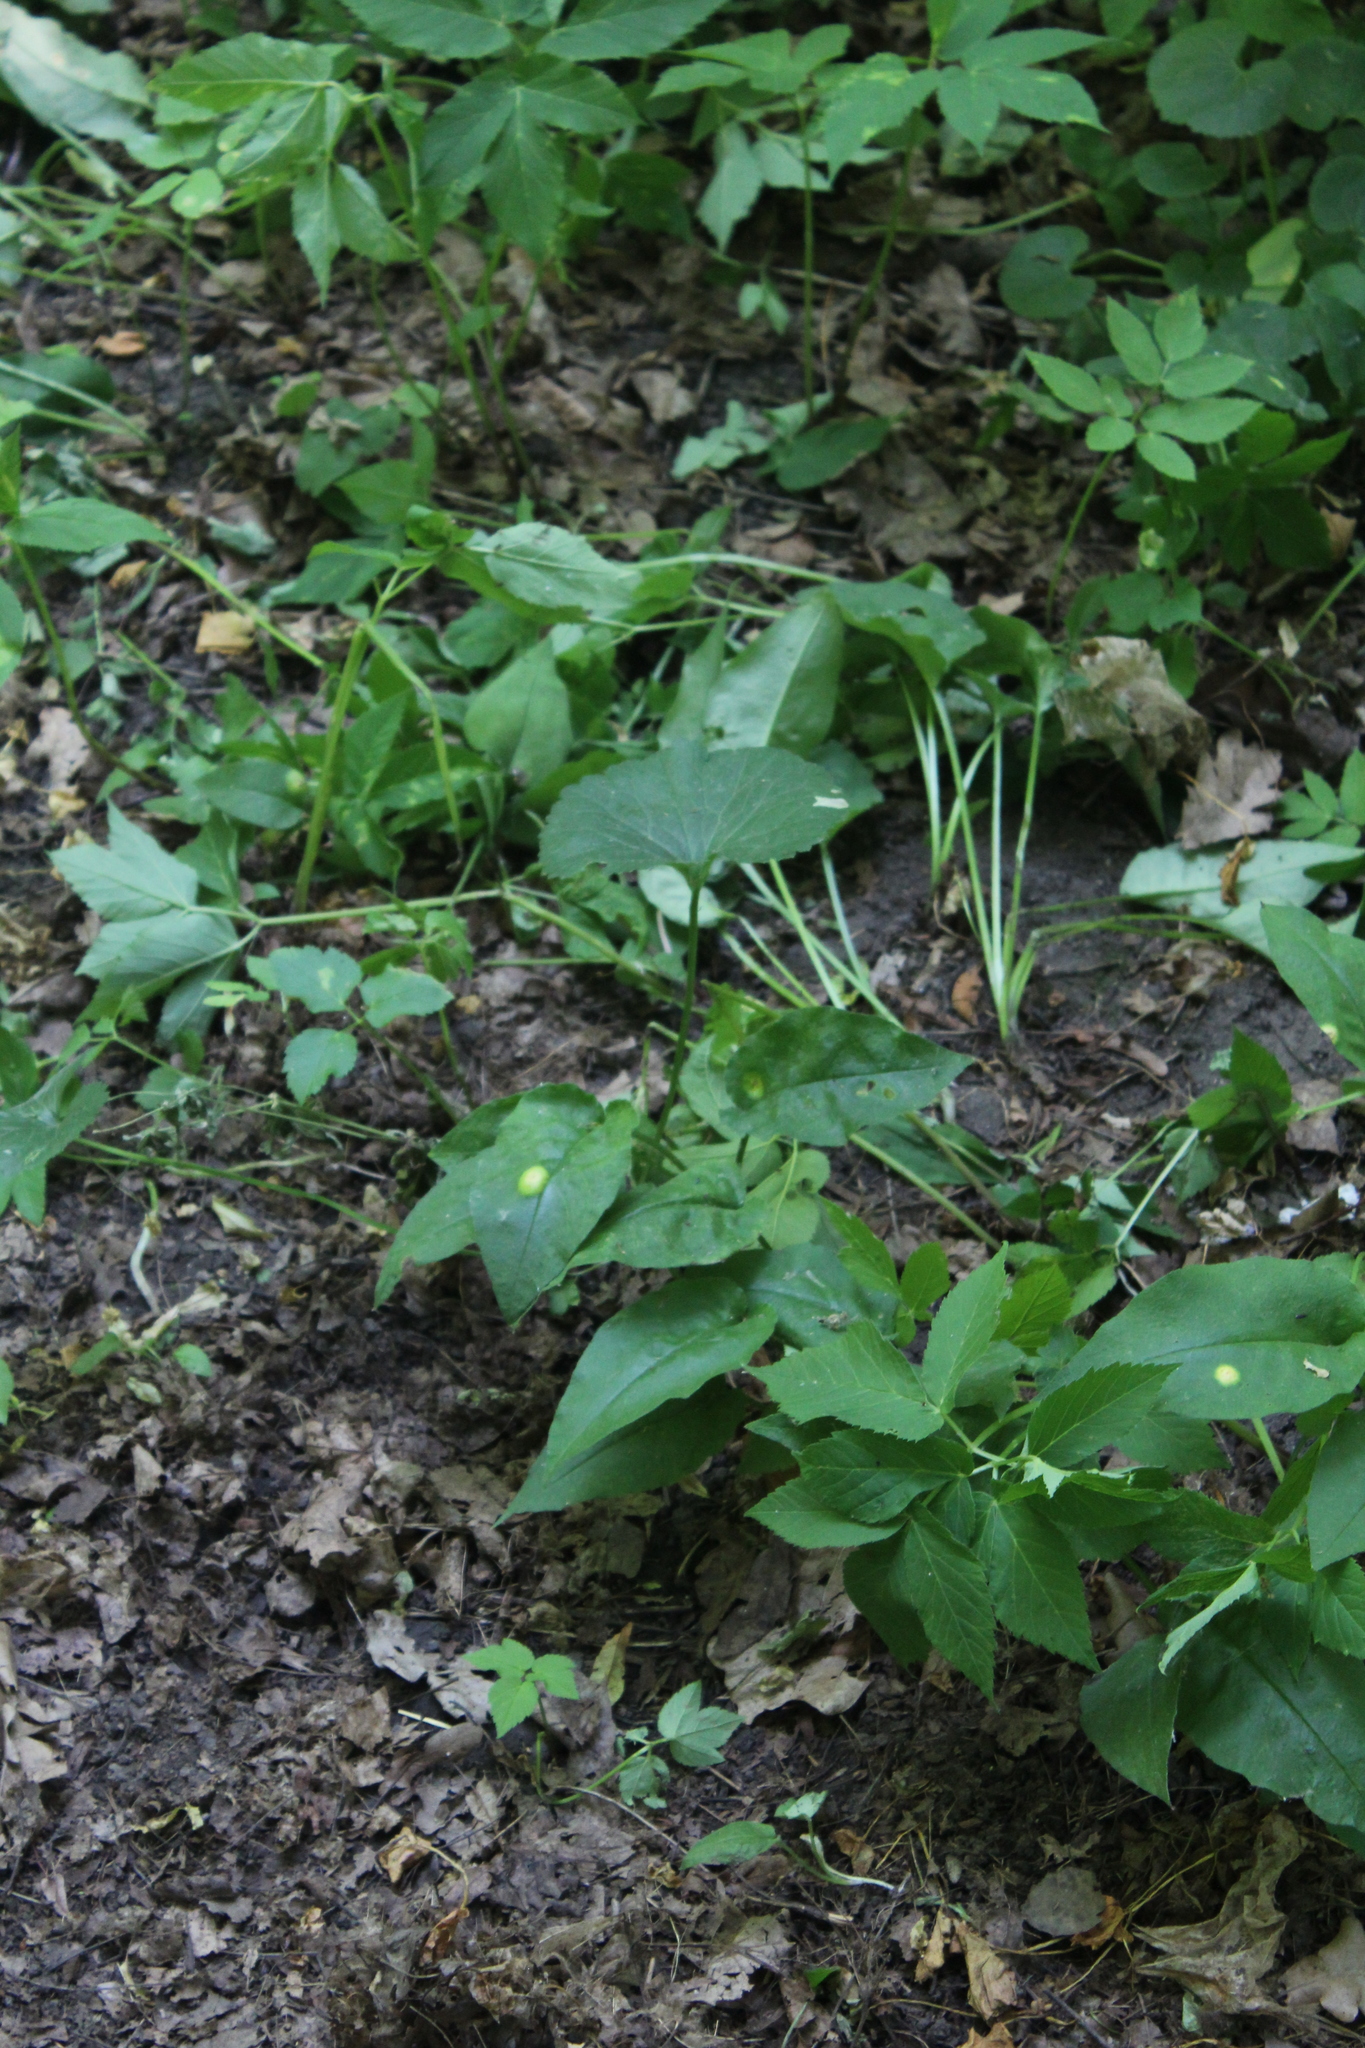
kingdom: Plantae
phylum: Tracheophyta
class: Magnoliopsida
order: Ranunculales
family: Ranunculaceae
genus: Ranunculus
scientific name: Ranunculus cassubicus
